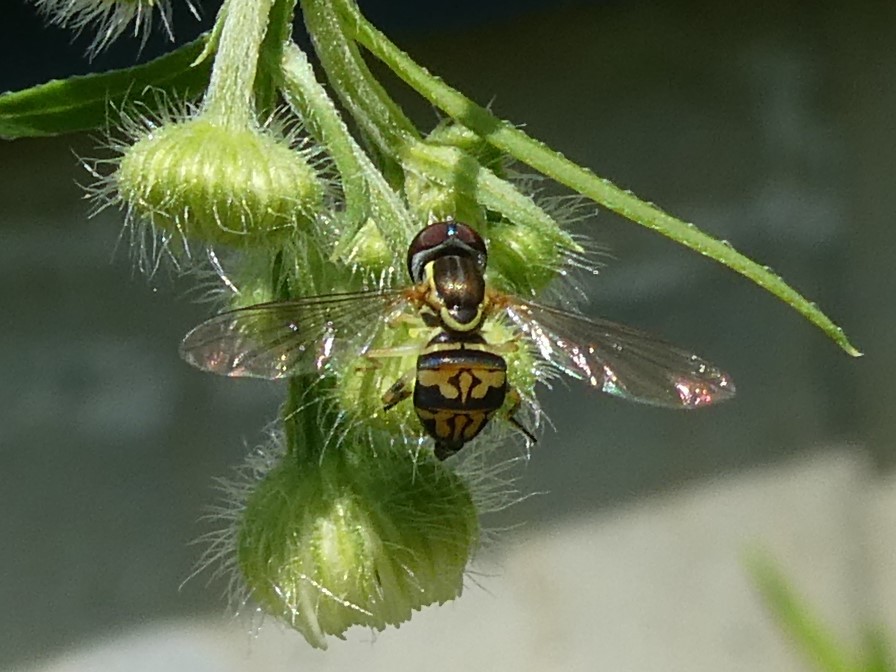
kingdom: Animalia
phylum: Arthropoda
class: Insecta
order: Diptera
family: Syrphidae
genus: Toxomerus
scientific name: Toxomerus geminatus
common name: Eastern calligrapher
